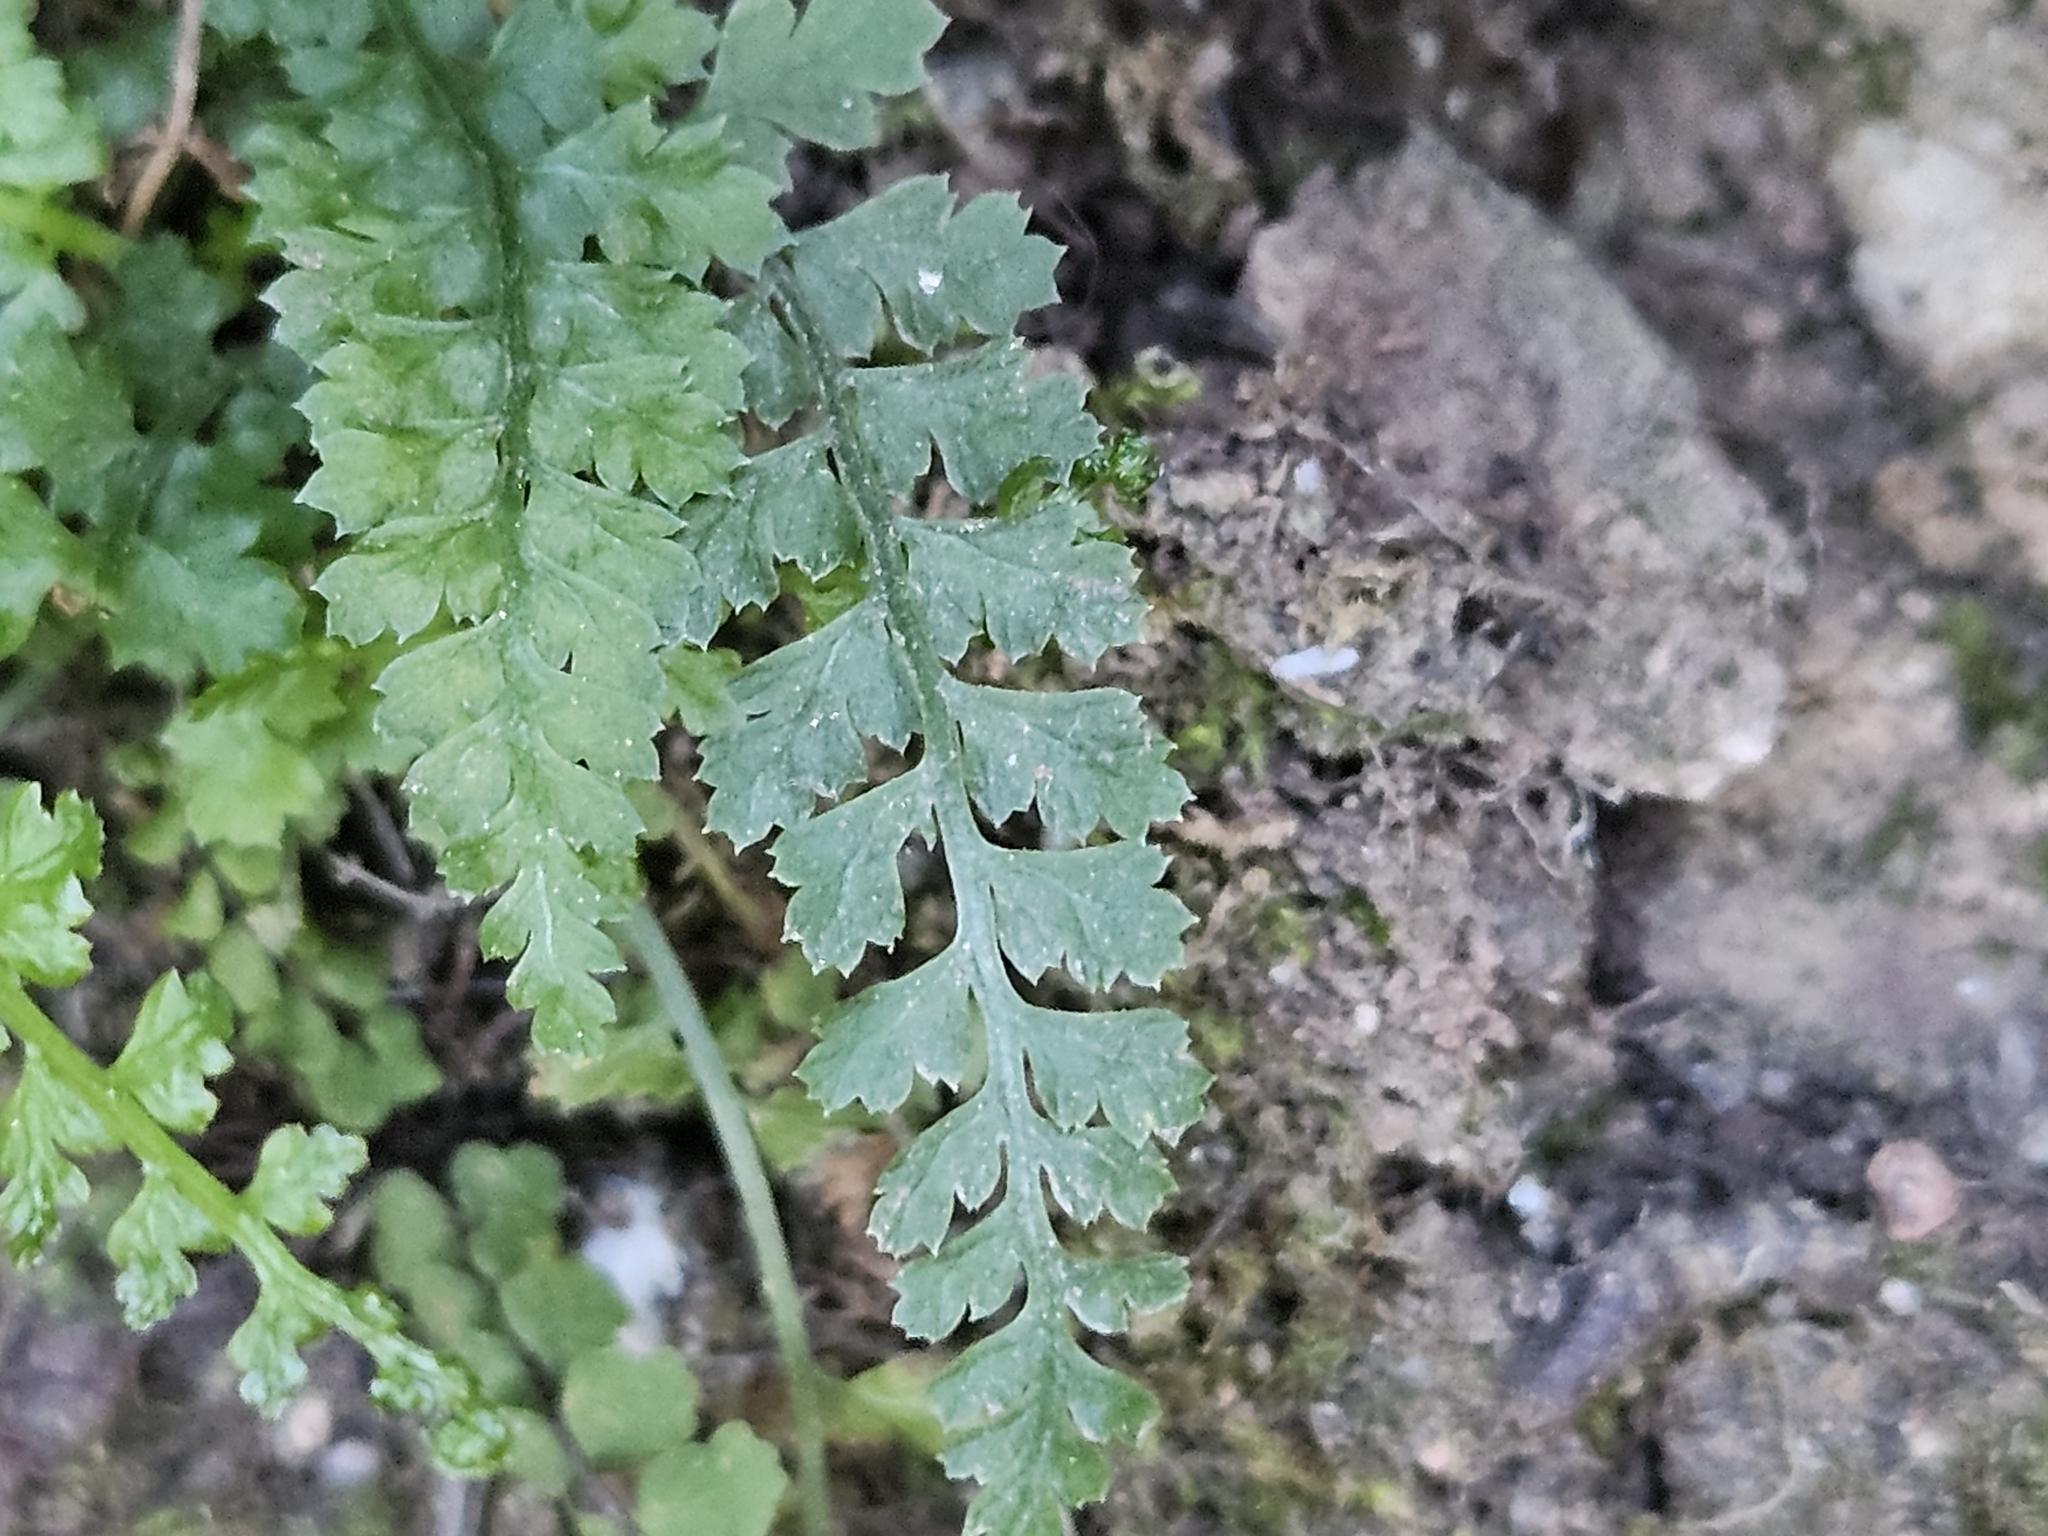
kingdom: Plantae
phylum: Tracheophyta
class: Polypodiopsida
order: Polypodiales
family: Aspleniaceae
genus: Asplenium
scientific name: Asplenium fontanum
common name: Fountain spleenwort
